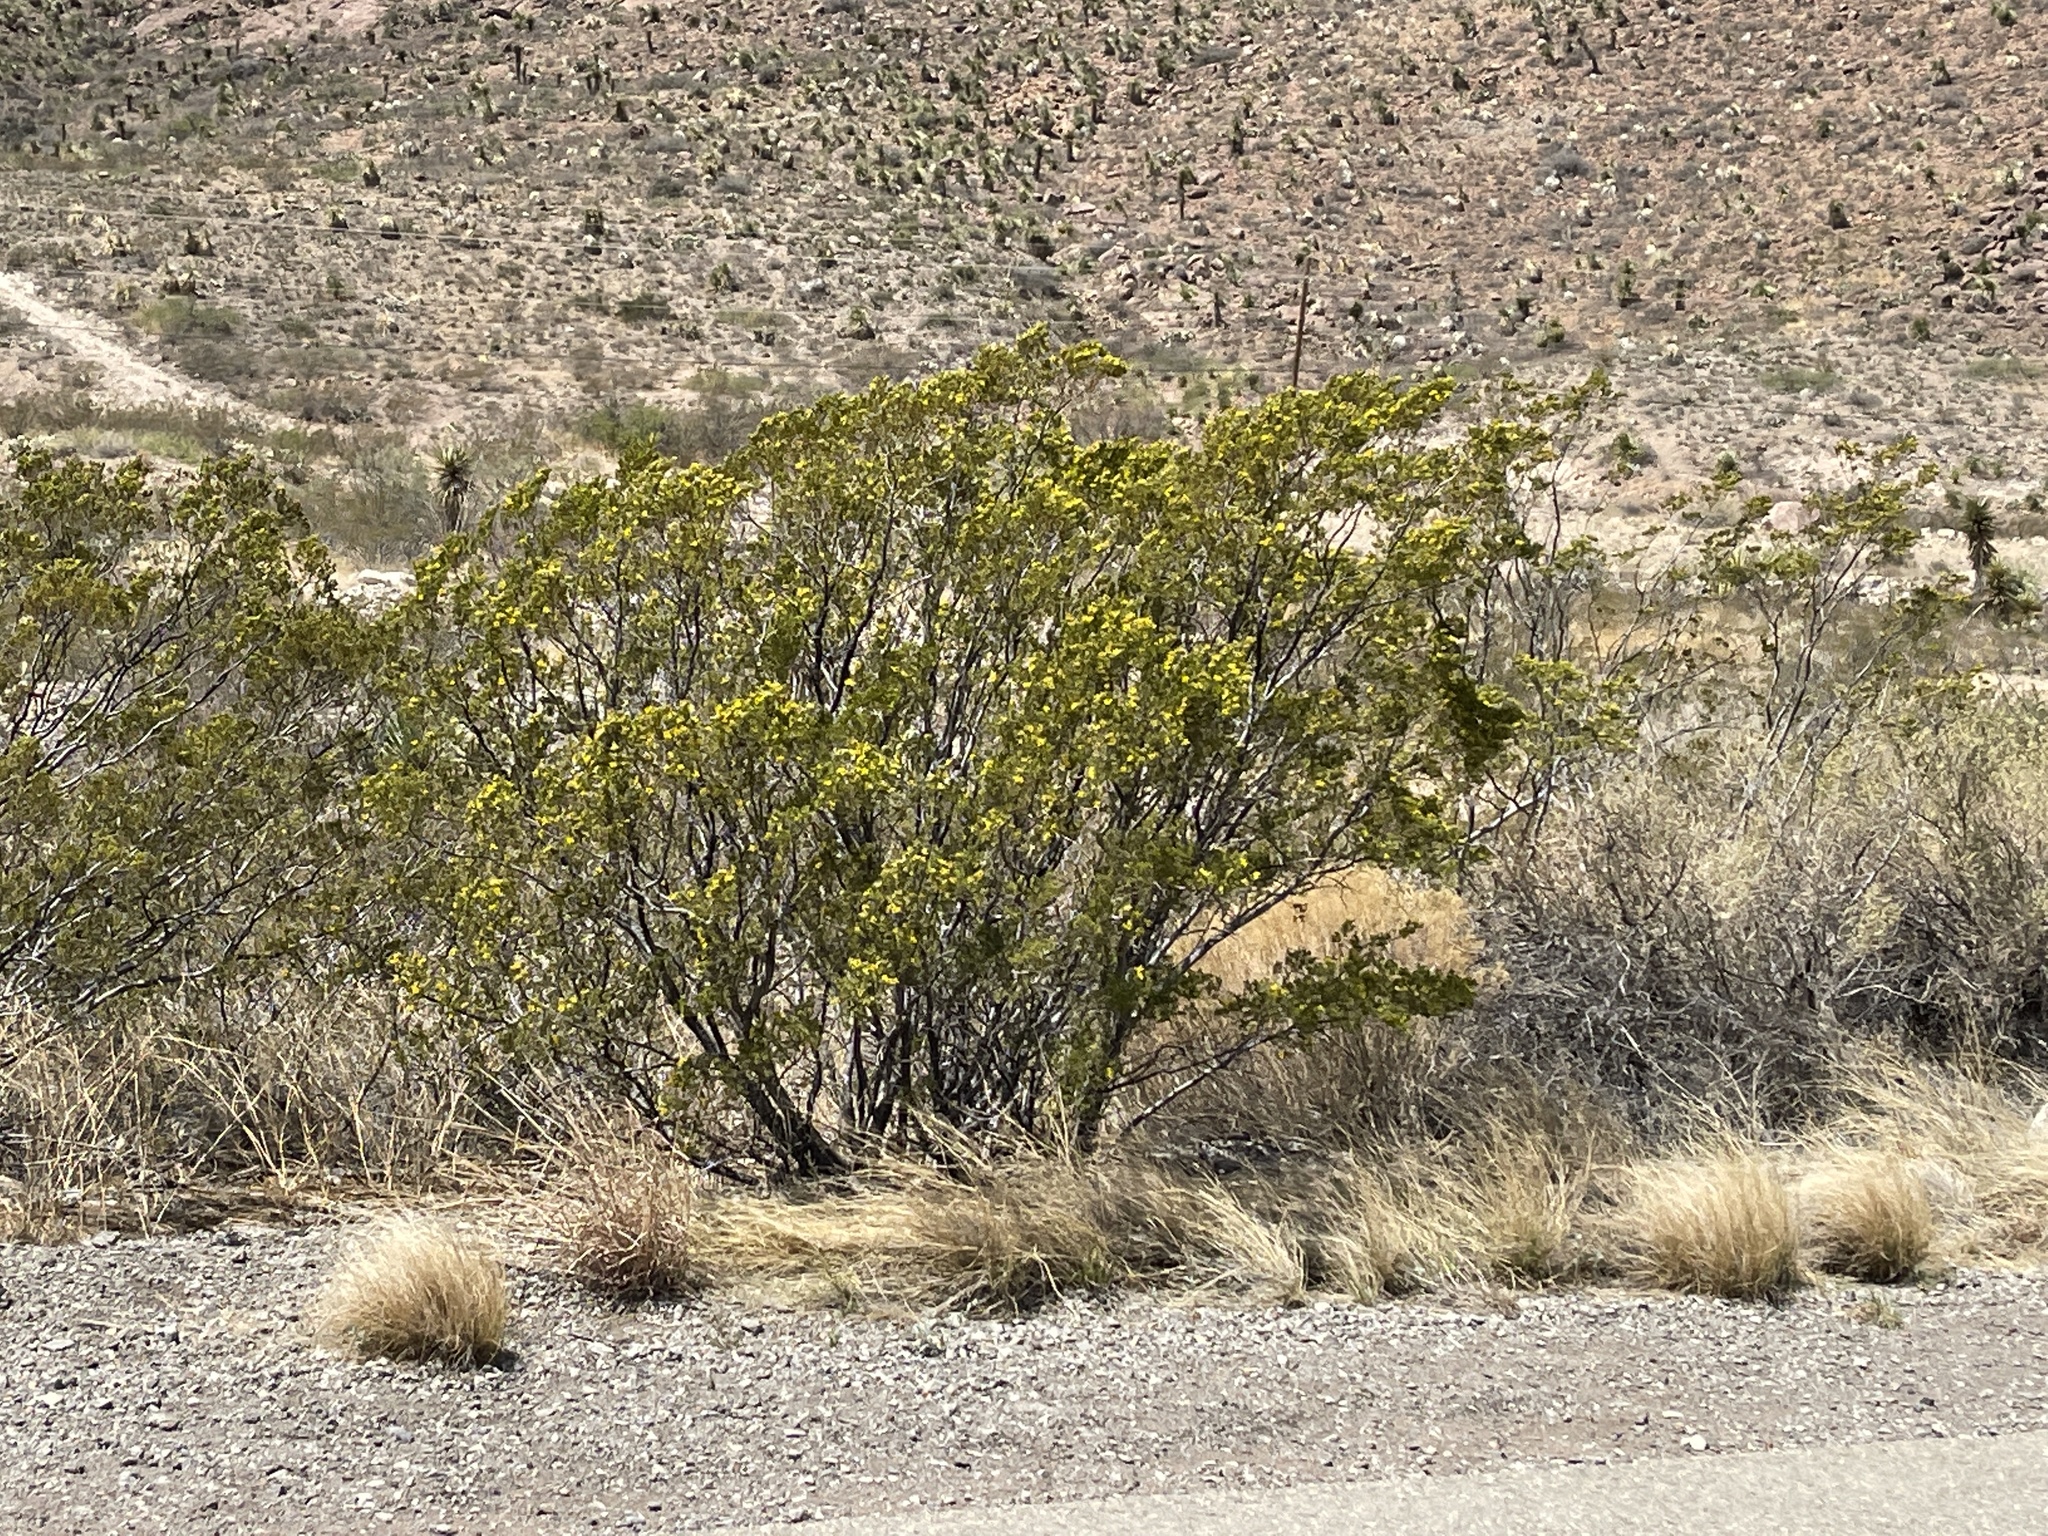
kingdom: Plantae
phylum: Tracheophyta
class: Magnoliopsida
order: Zygophyllales
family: Zygophyllaceae
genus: Larrea
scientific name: Larrea tridentata
